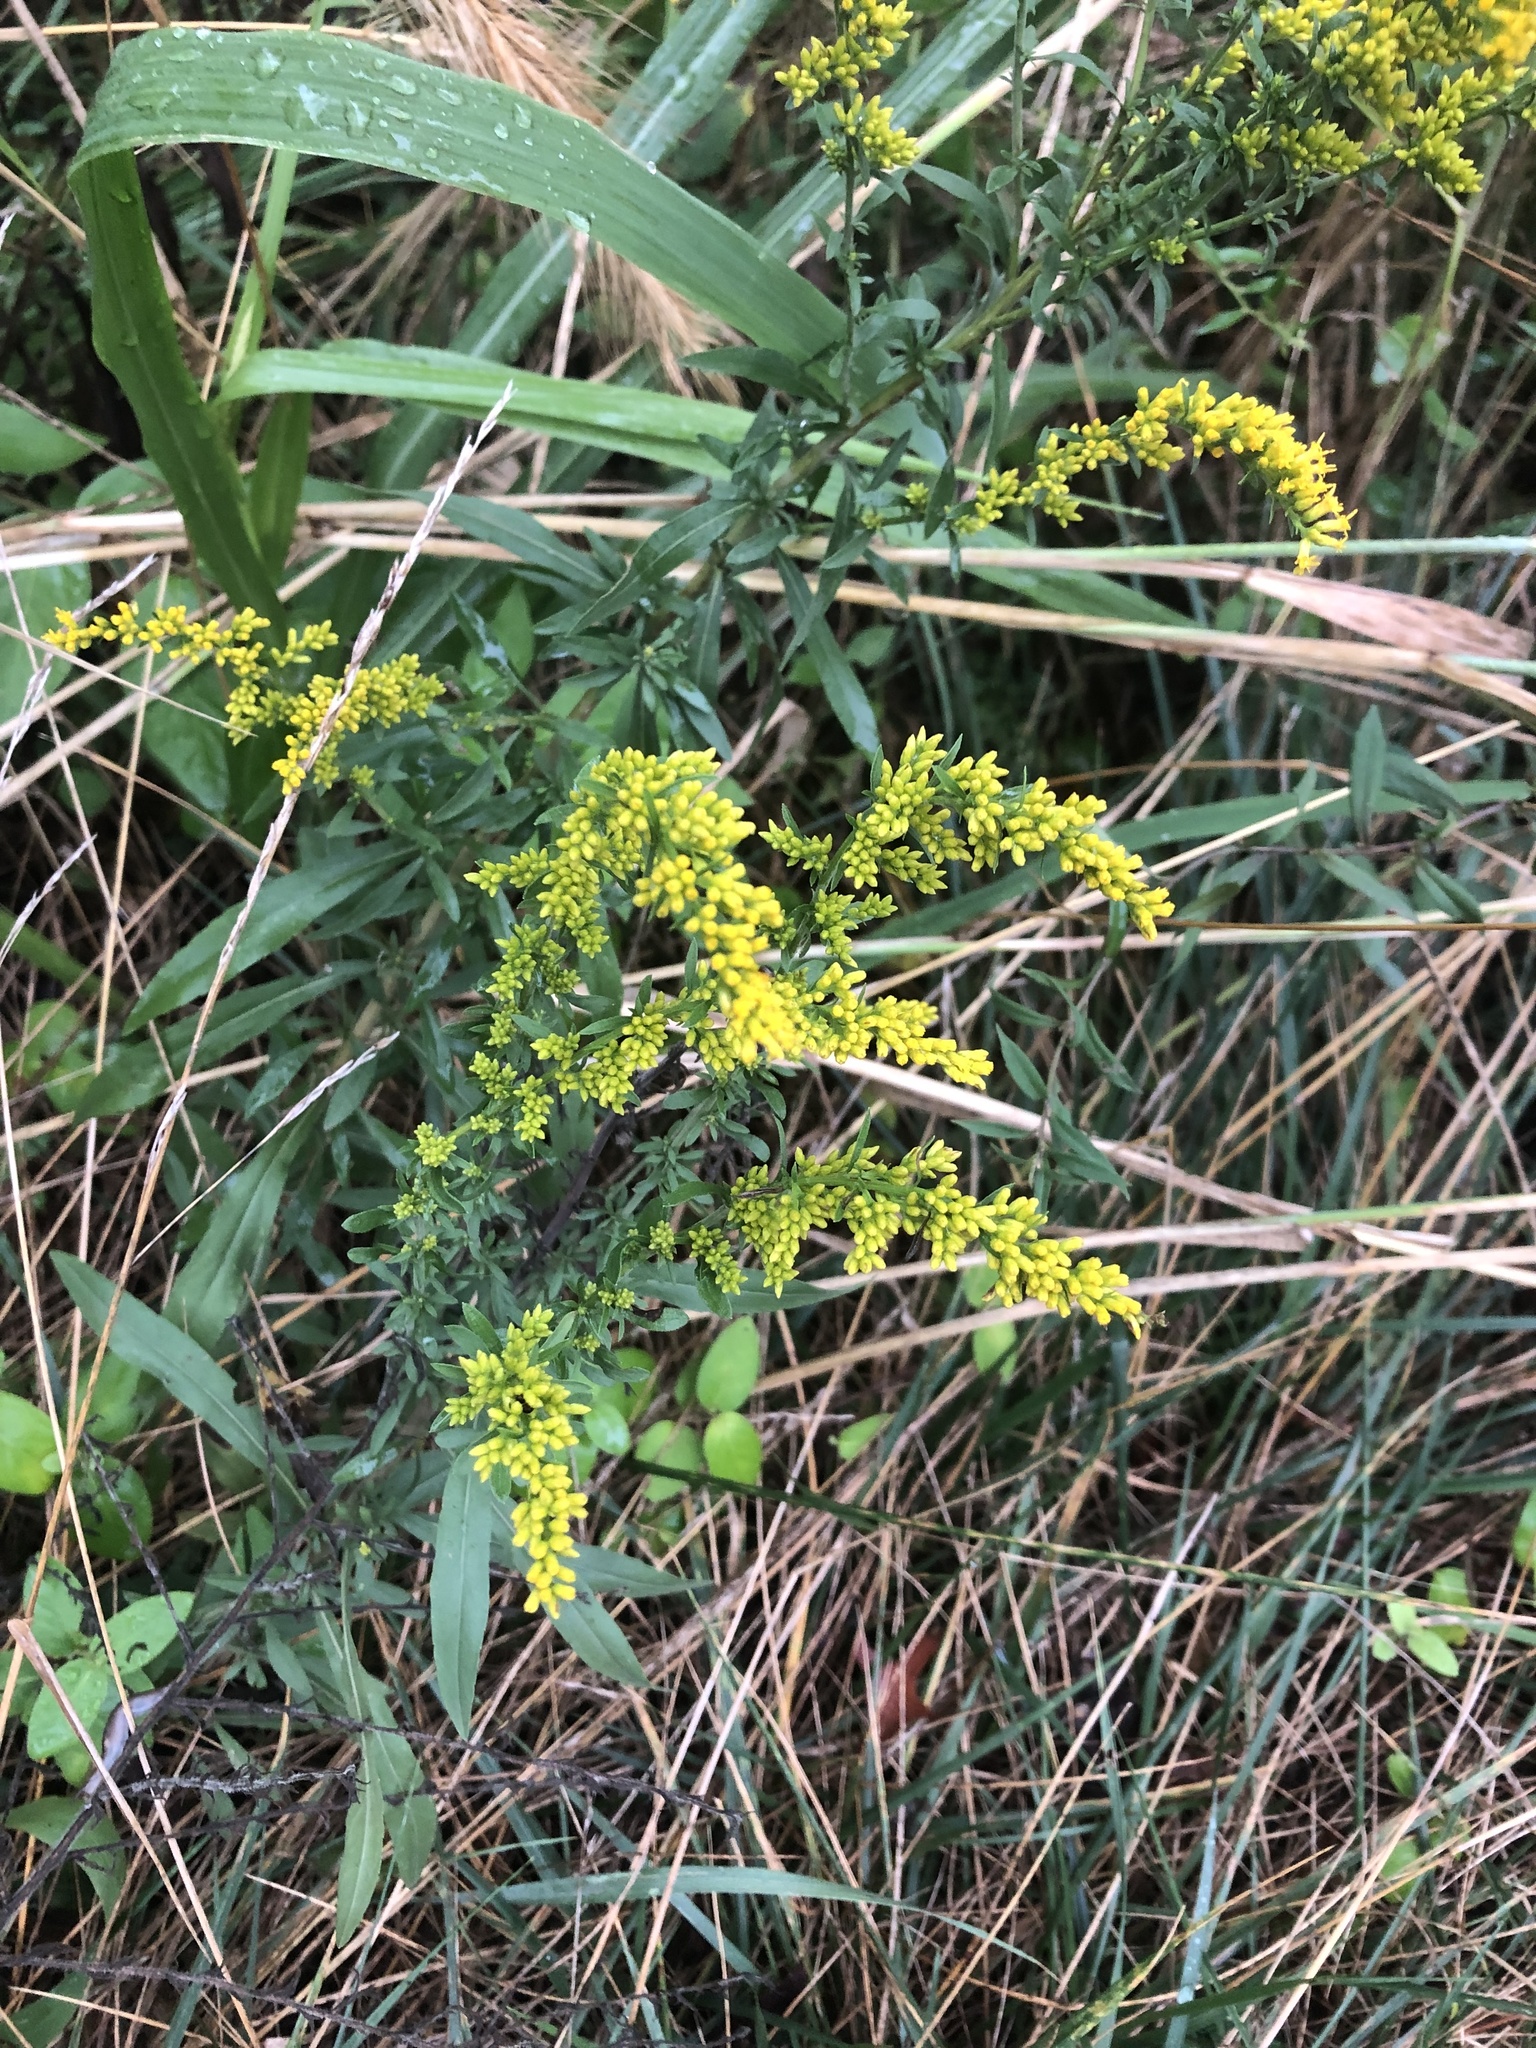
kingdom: Plantae
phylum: Tracheophyta
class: Magnoliopsida
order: Asterales
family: Asteraceae
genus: Solidago
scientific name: Solidago nemoralis
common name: Grey goldenrod
